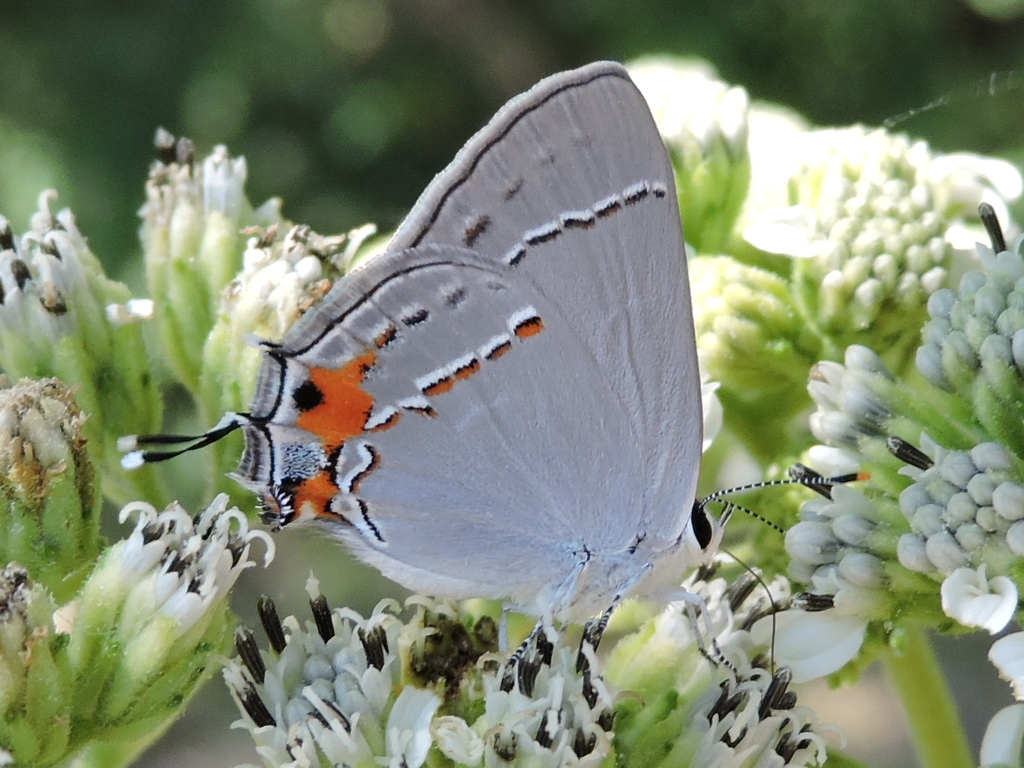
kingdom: Animalia
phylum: Arthropoda
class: Insecta
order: Lepidoptera
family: Lycaenidae
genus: Strymon
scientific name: Strymon melinus
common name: Gray hairstreak
